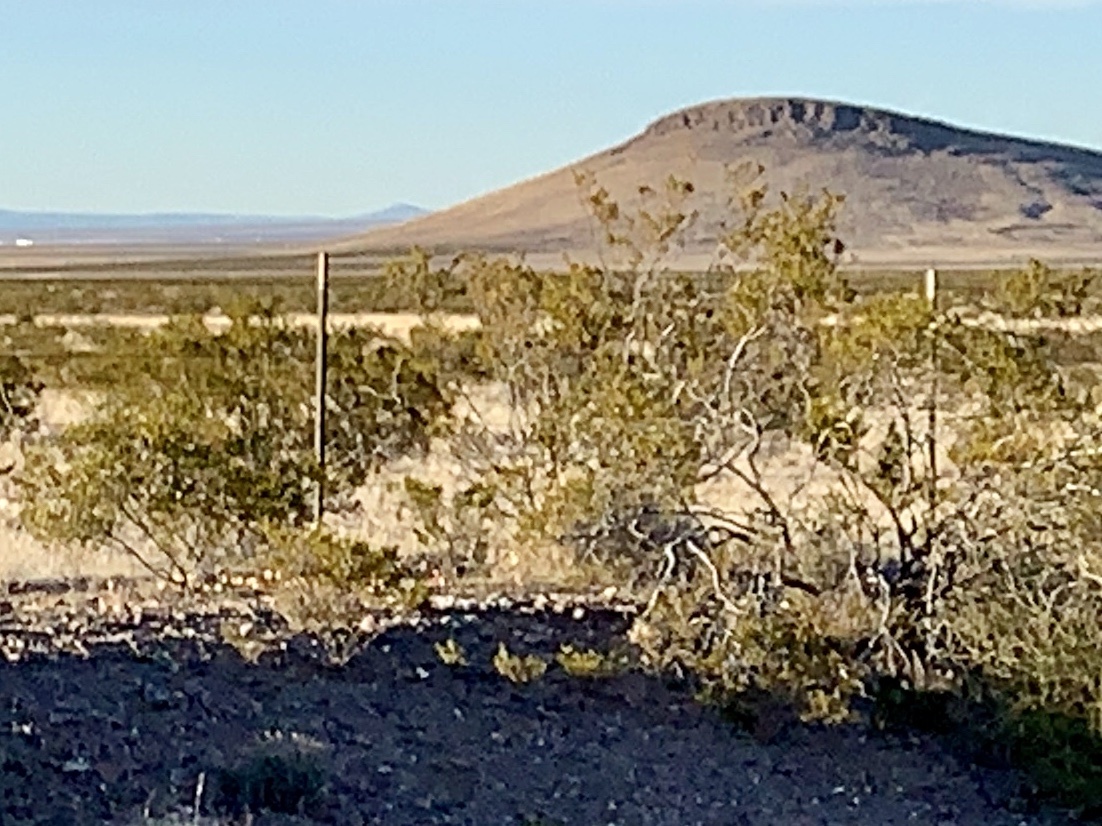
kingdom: Plantae
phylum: Tracheophyta
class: Magnoliopsida
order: Zygophyllales
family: Zygophyllaceae
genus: Larrea
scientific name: Larrea tridentata
